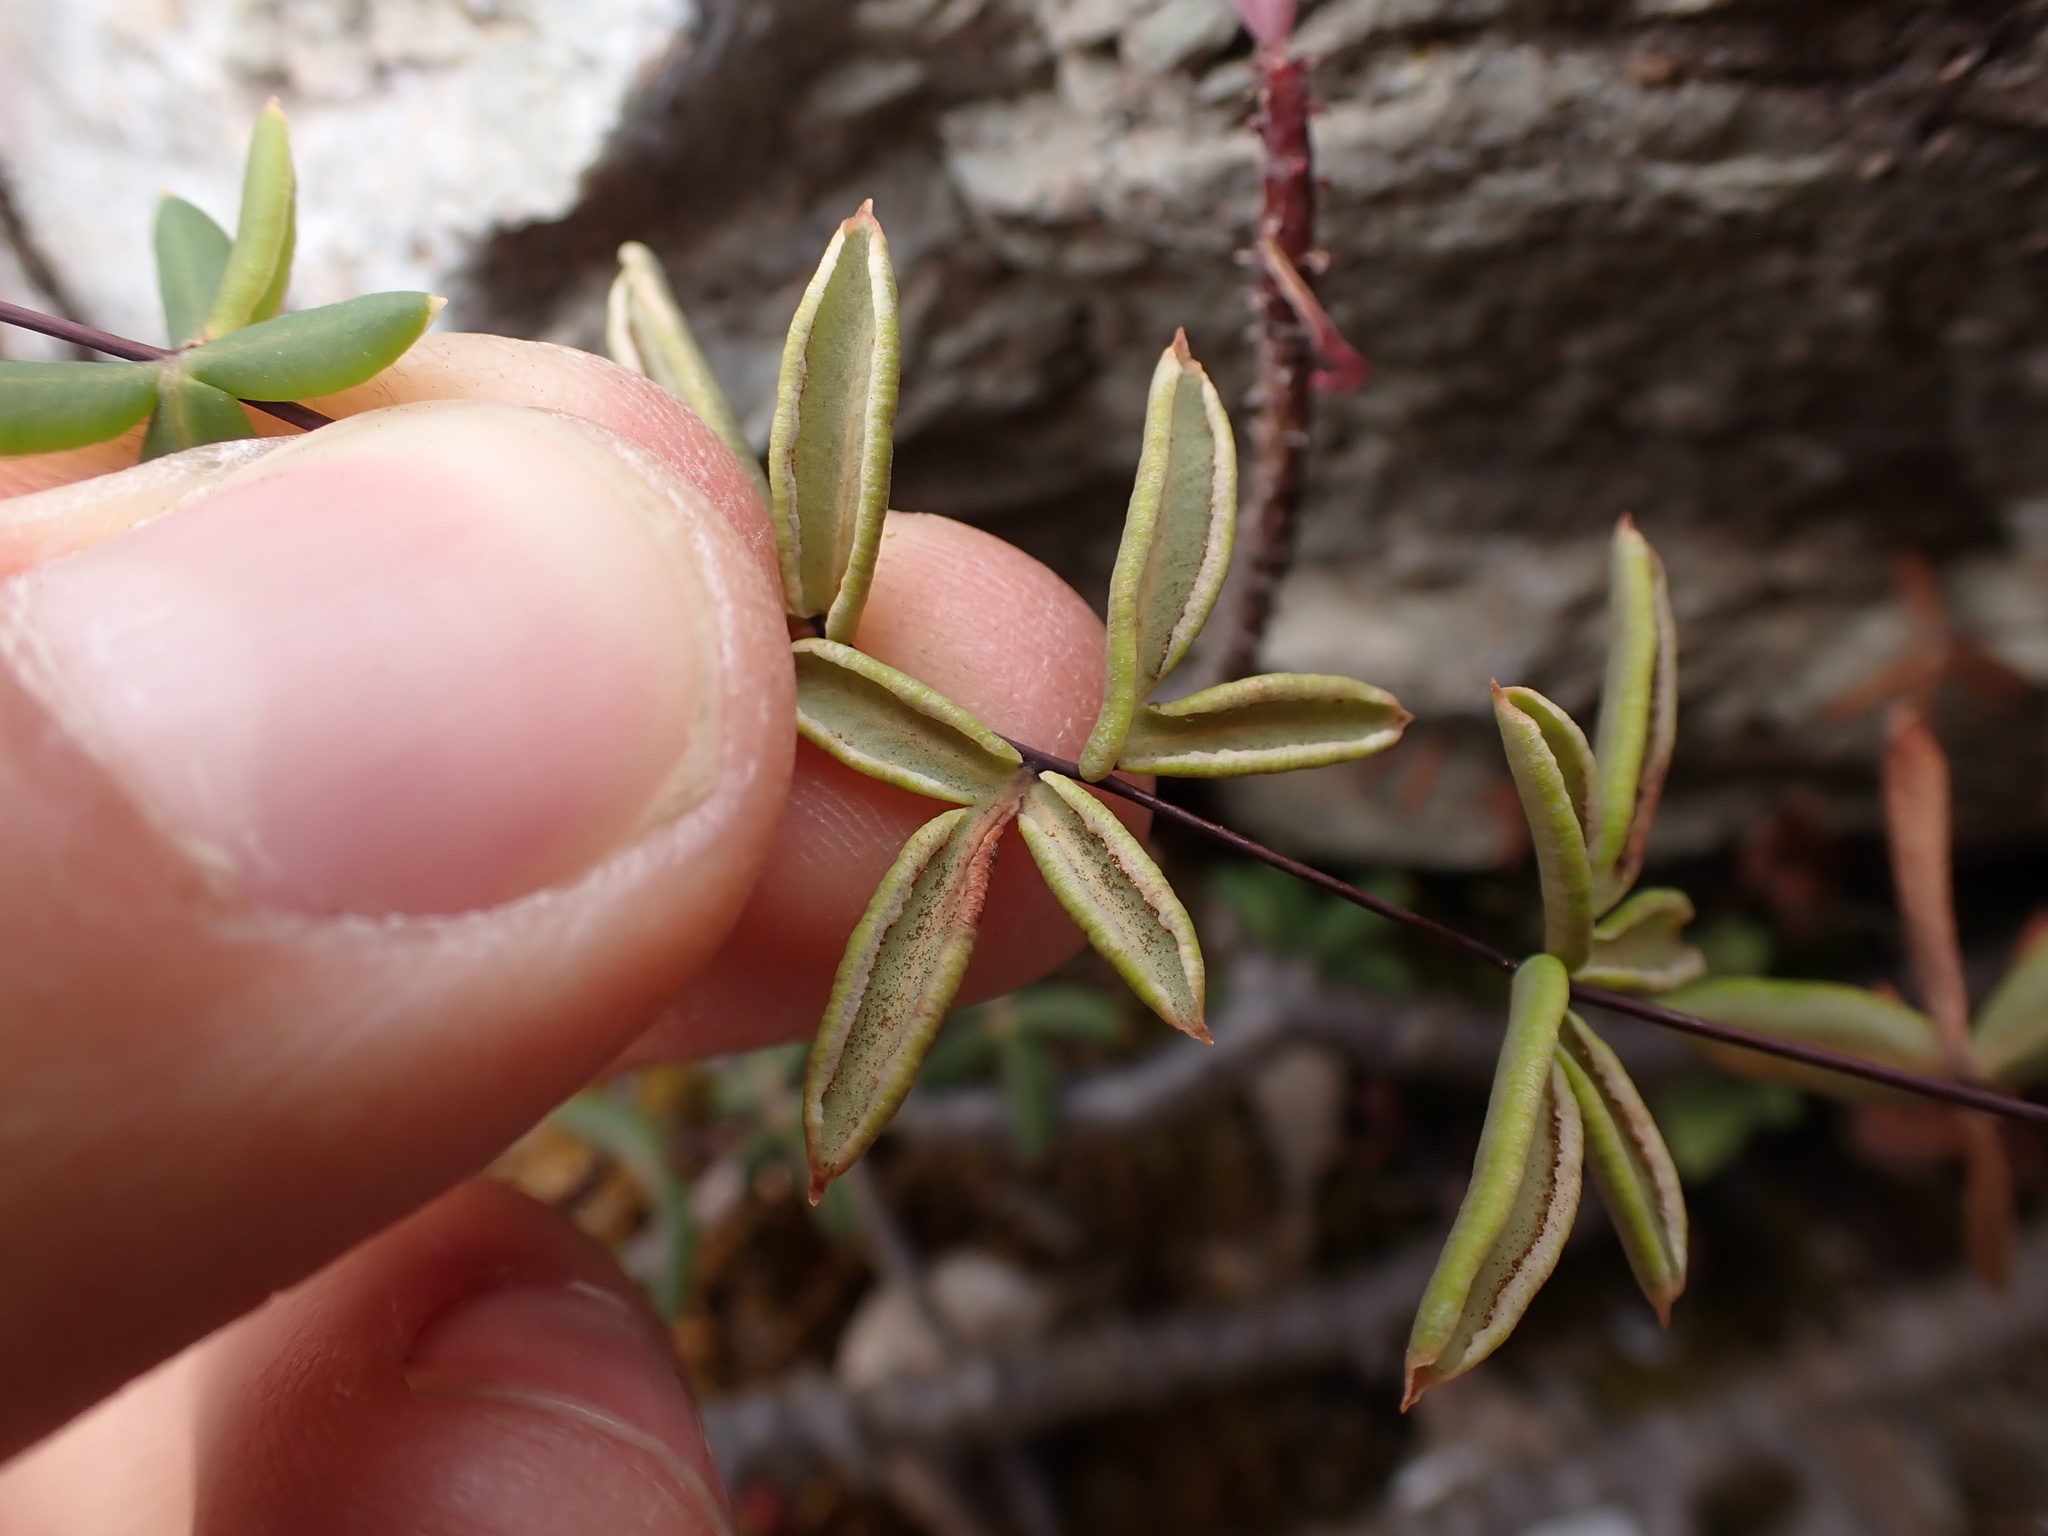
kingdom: Plantae
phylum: Tracheophyta
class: Polypodiopsida
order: Polypodiales
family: Pteridaceae
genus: Pellaea
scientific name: Pellaea ternifolia
